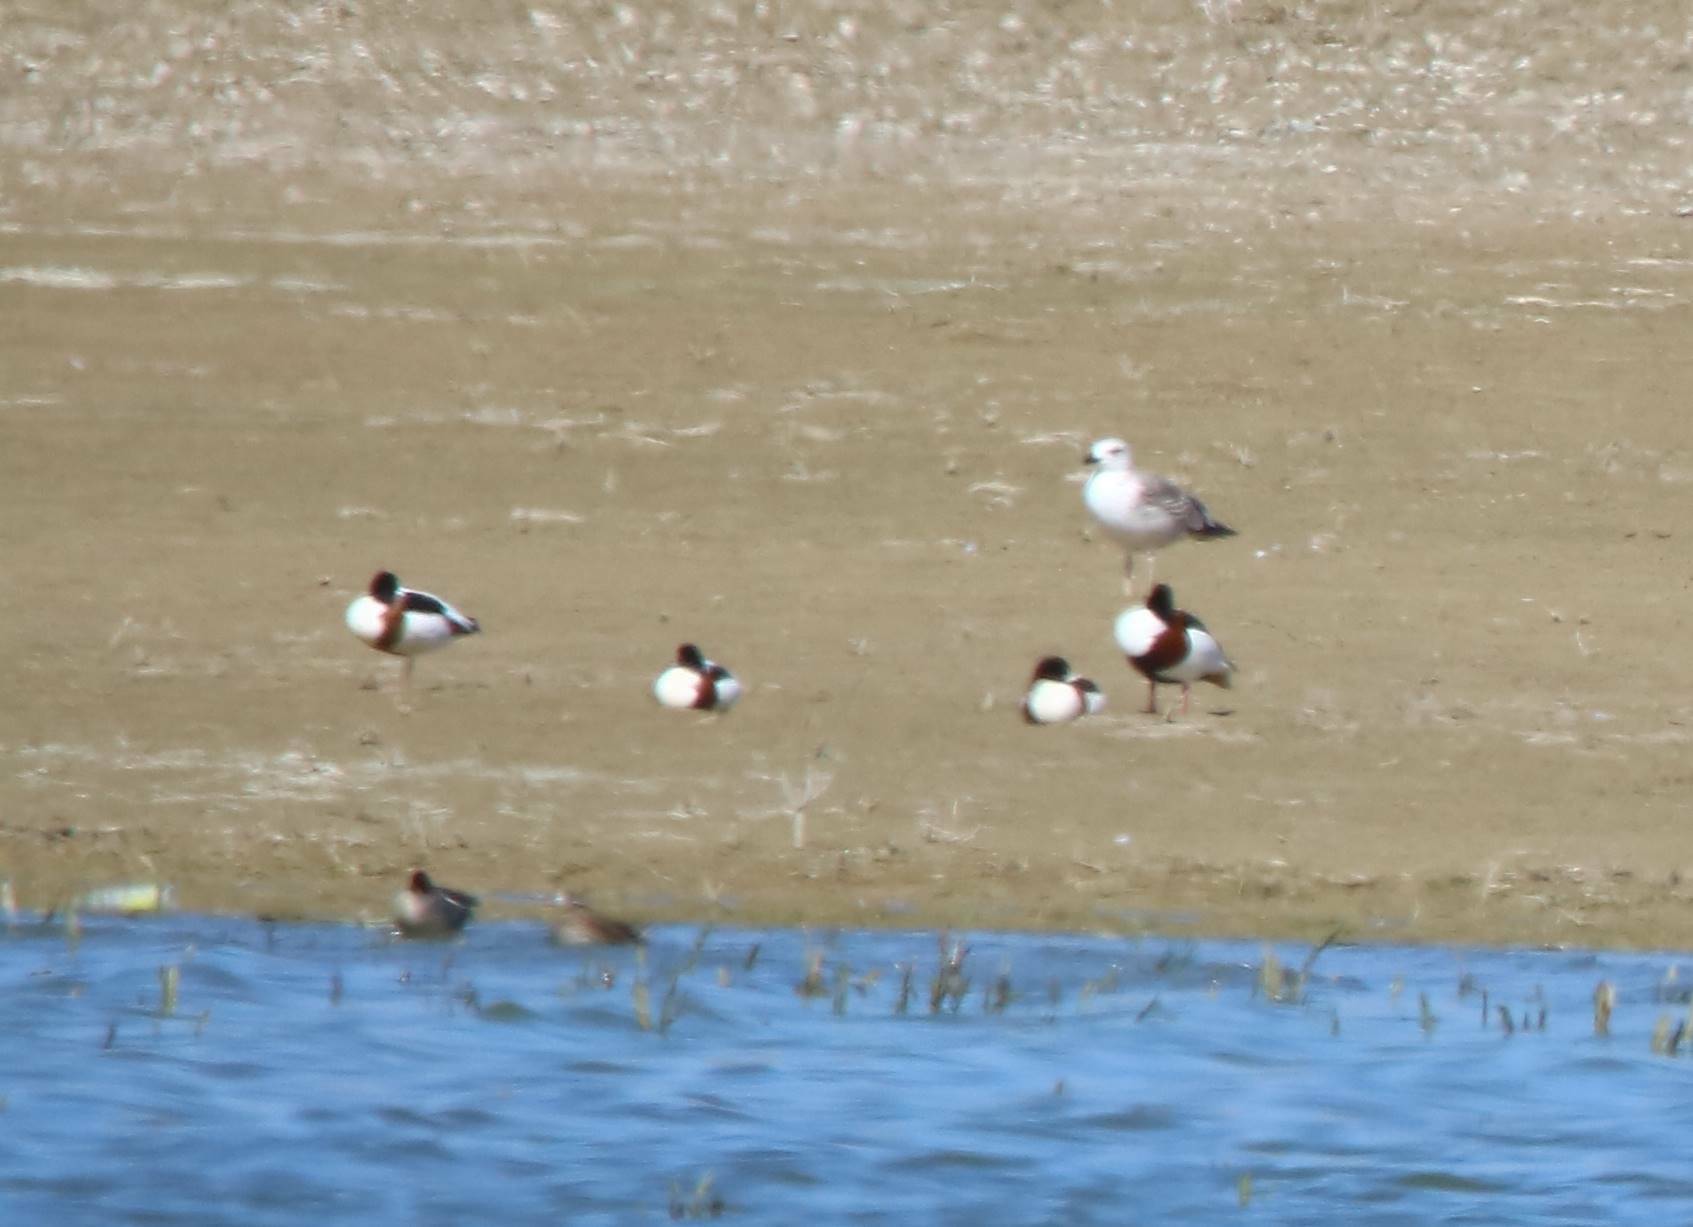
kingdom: Animalia
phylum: Chordata
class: Aves
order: Anseriformes
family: Anatidae
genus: Tadorna
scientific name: Tadorna tadorna
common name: Common shelduck
